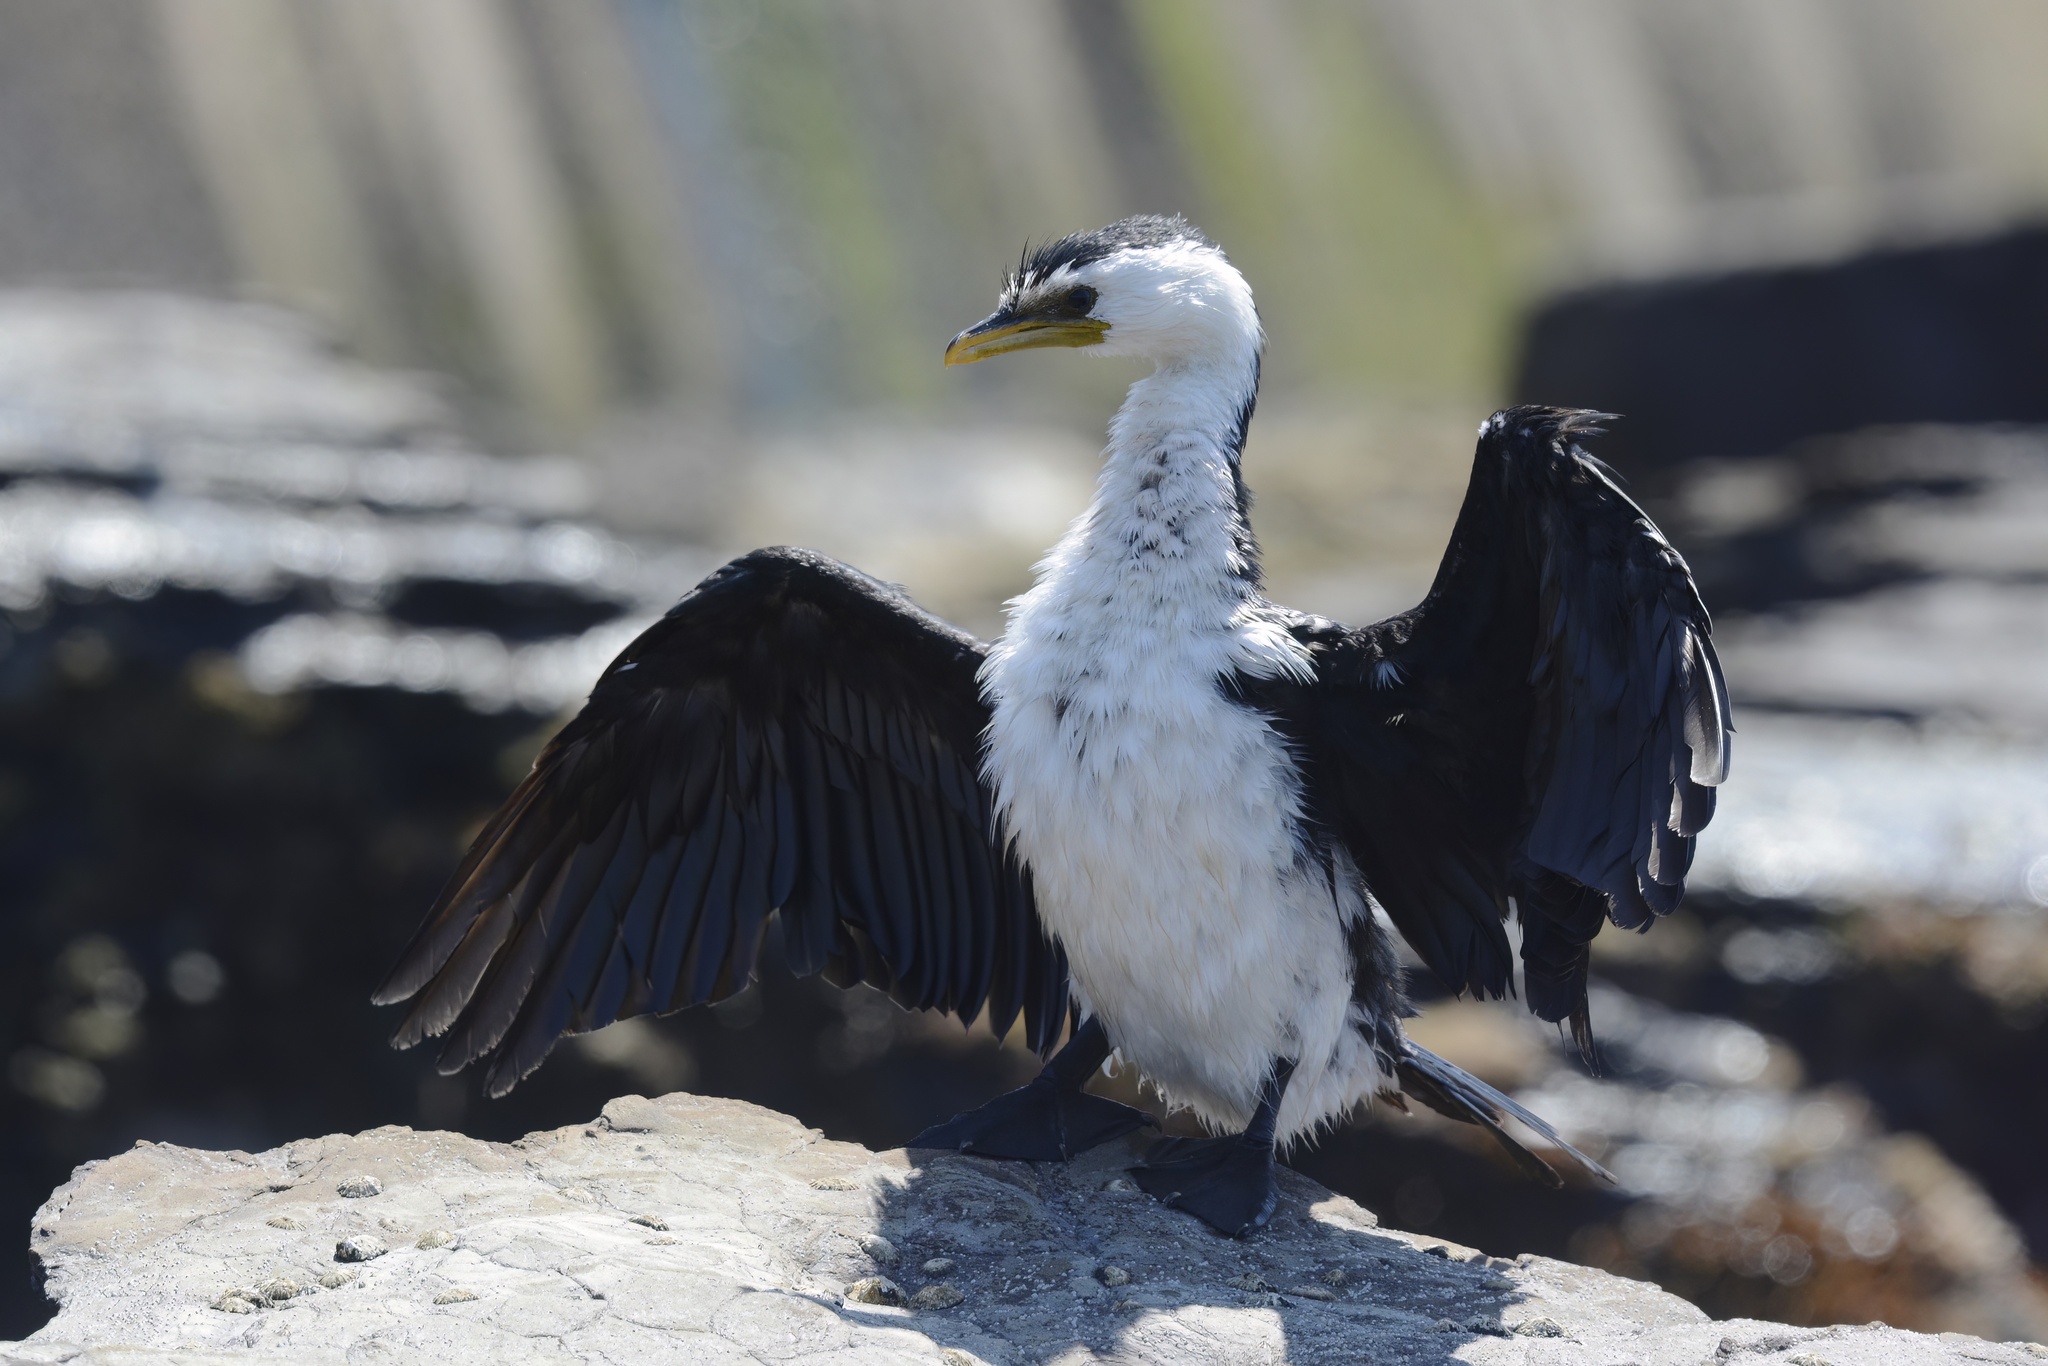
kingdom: Animalia
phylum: Chordata
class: Aves
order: Suliformes
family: Phalacrocoracidae
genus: Microcarbo
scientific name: Microcarbo melanoleucos
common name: Little pied cormorant
